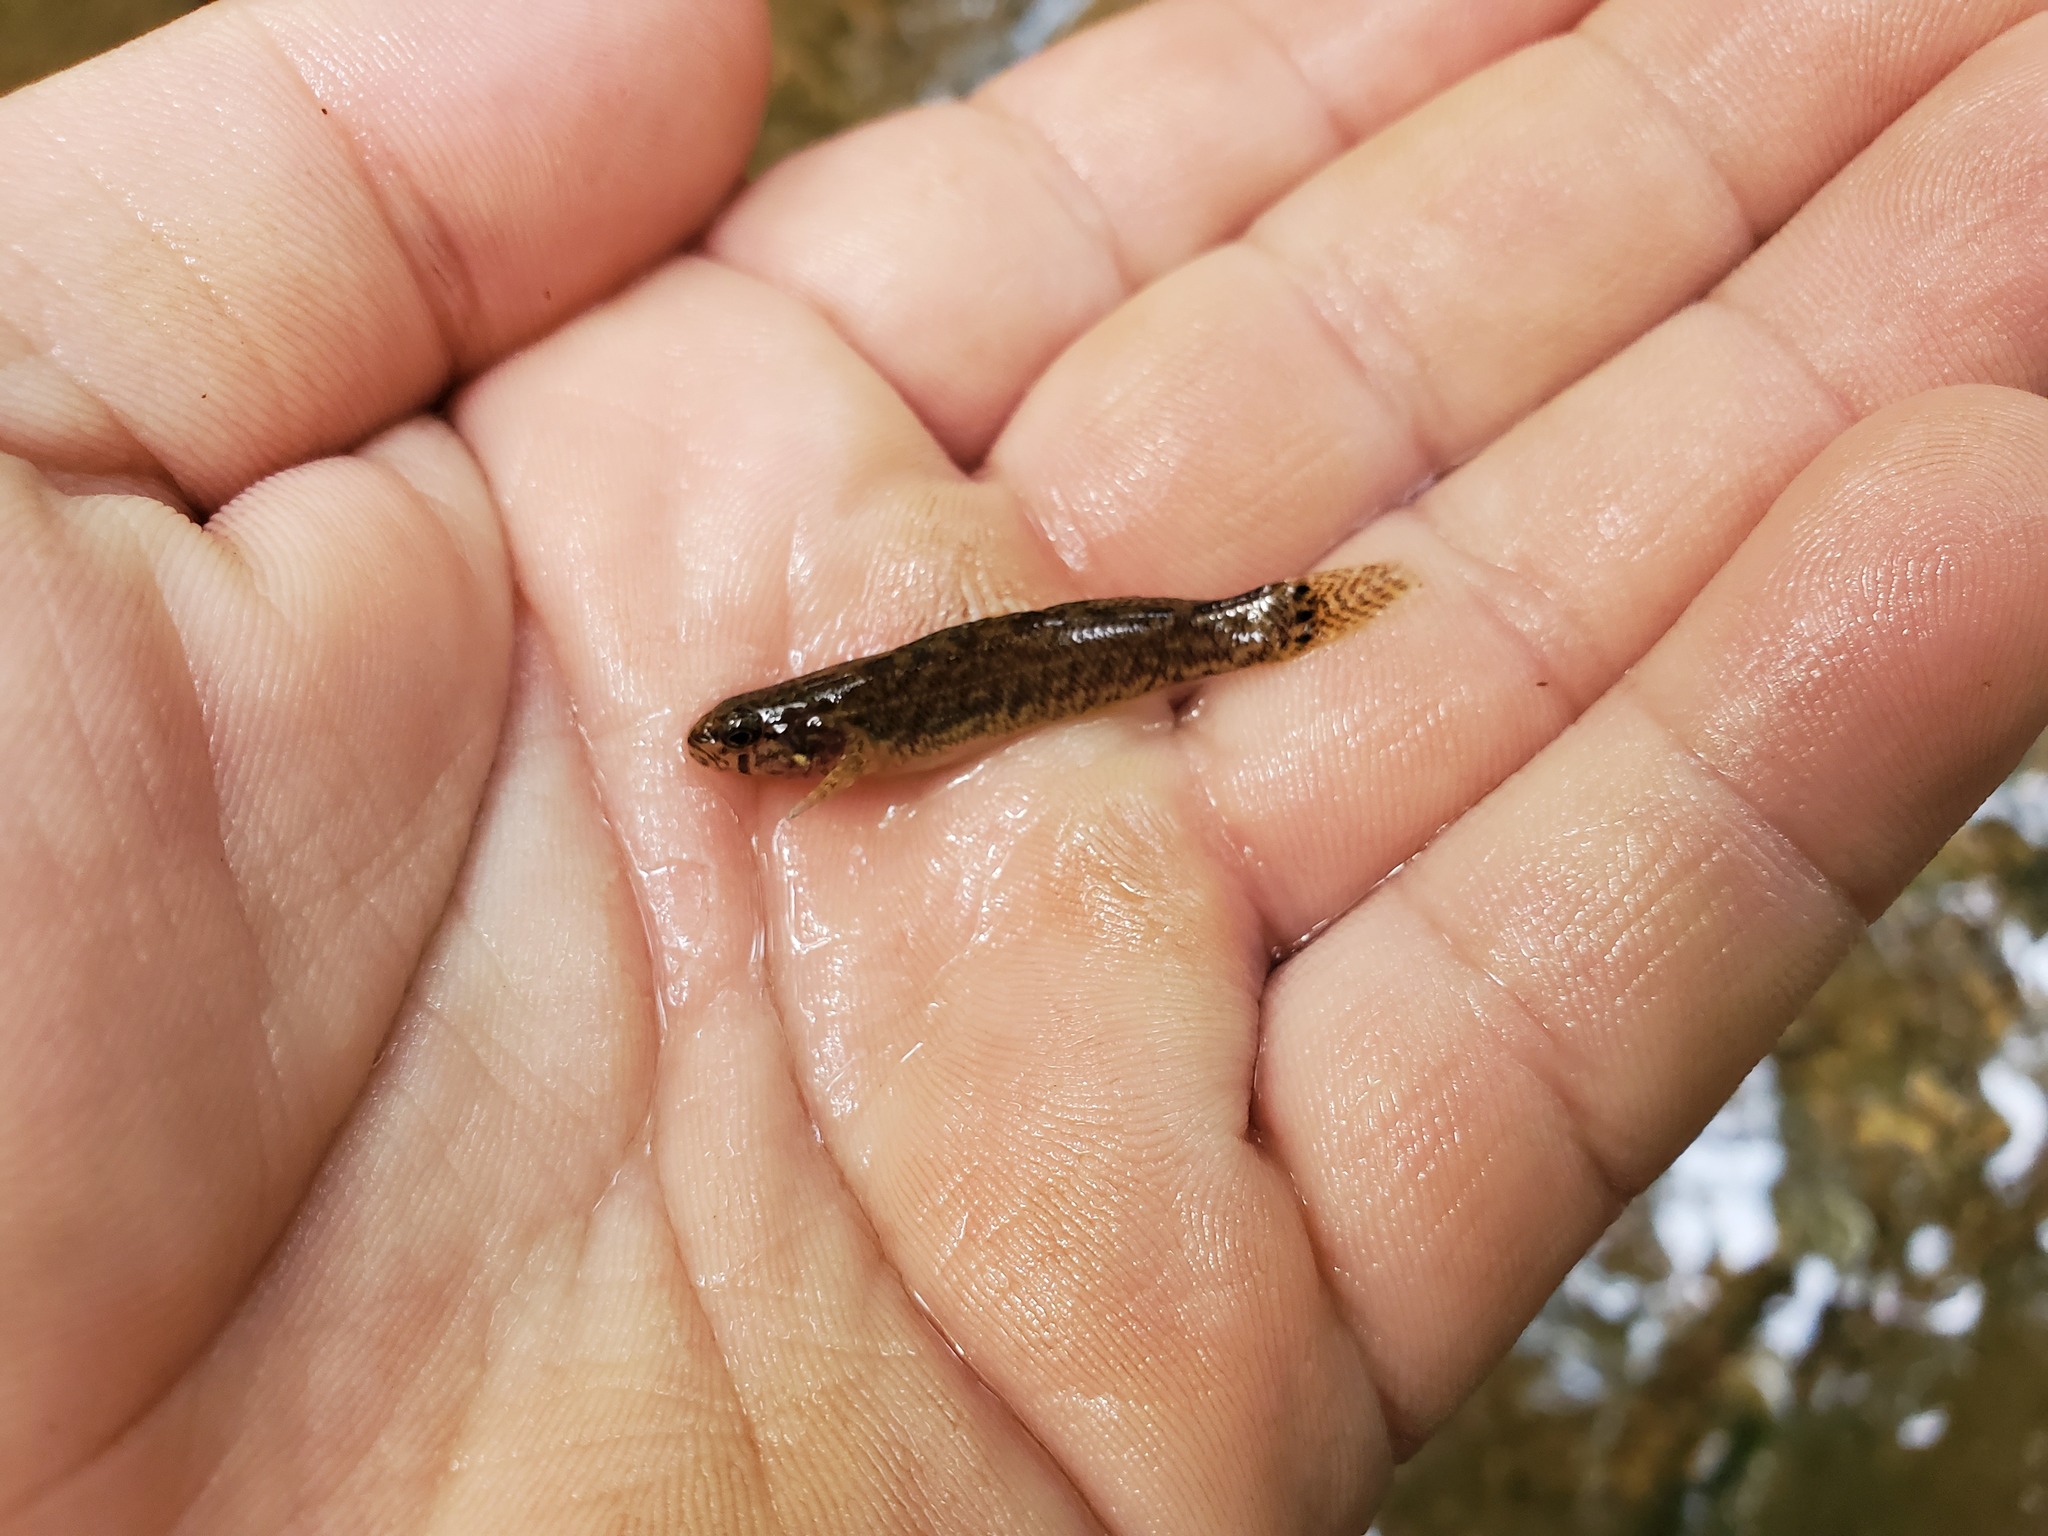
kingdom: Animalia
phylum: Chordata
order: Perciformes
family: Percidae
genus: Etheostoma
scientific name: Etheostoma squamiceps
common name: Spottail darter
